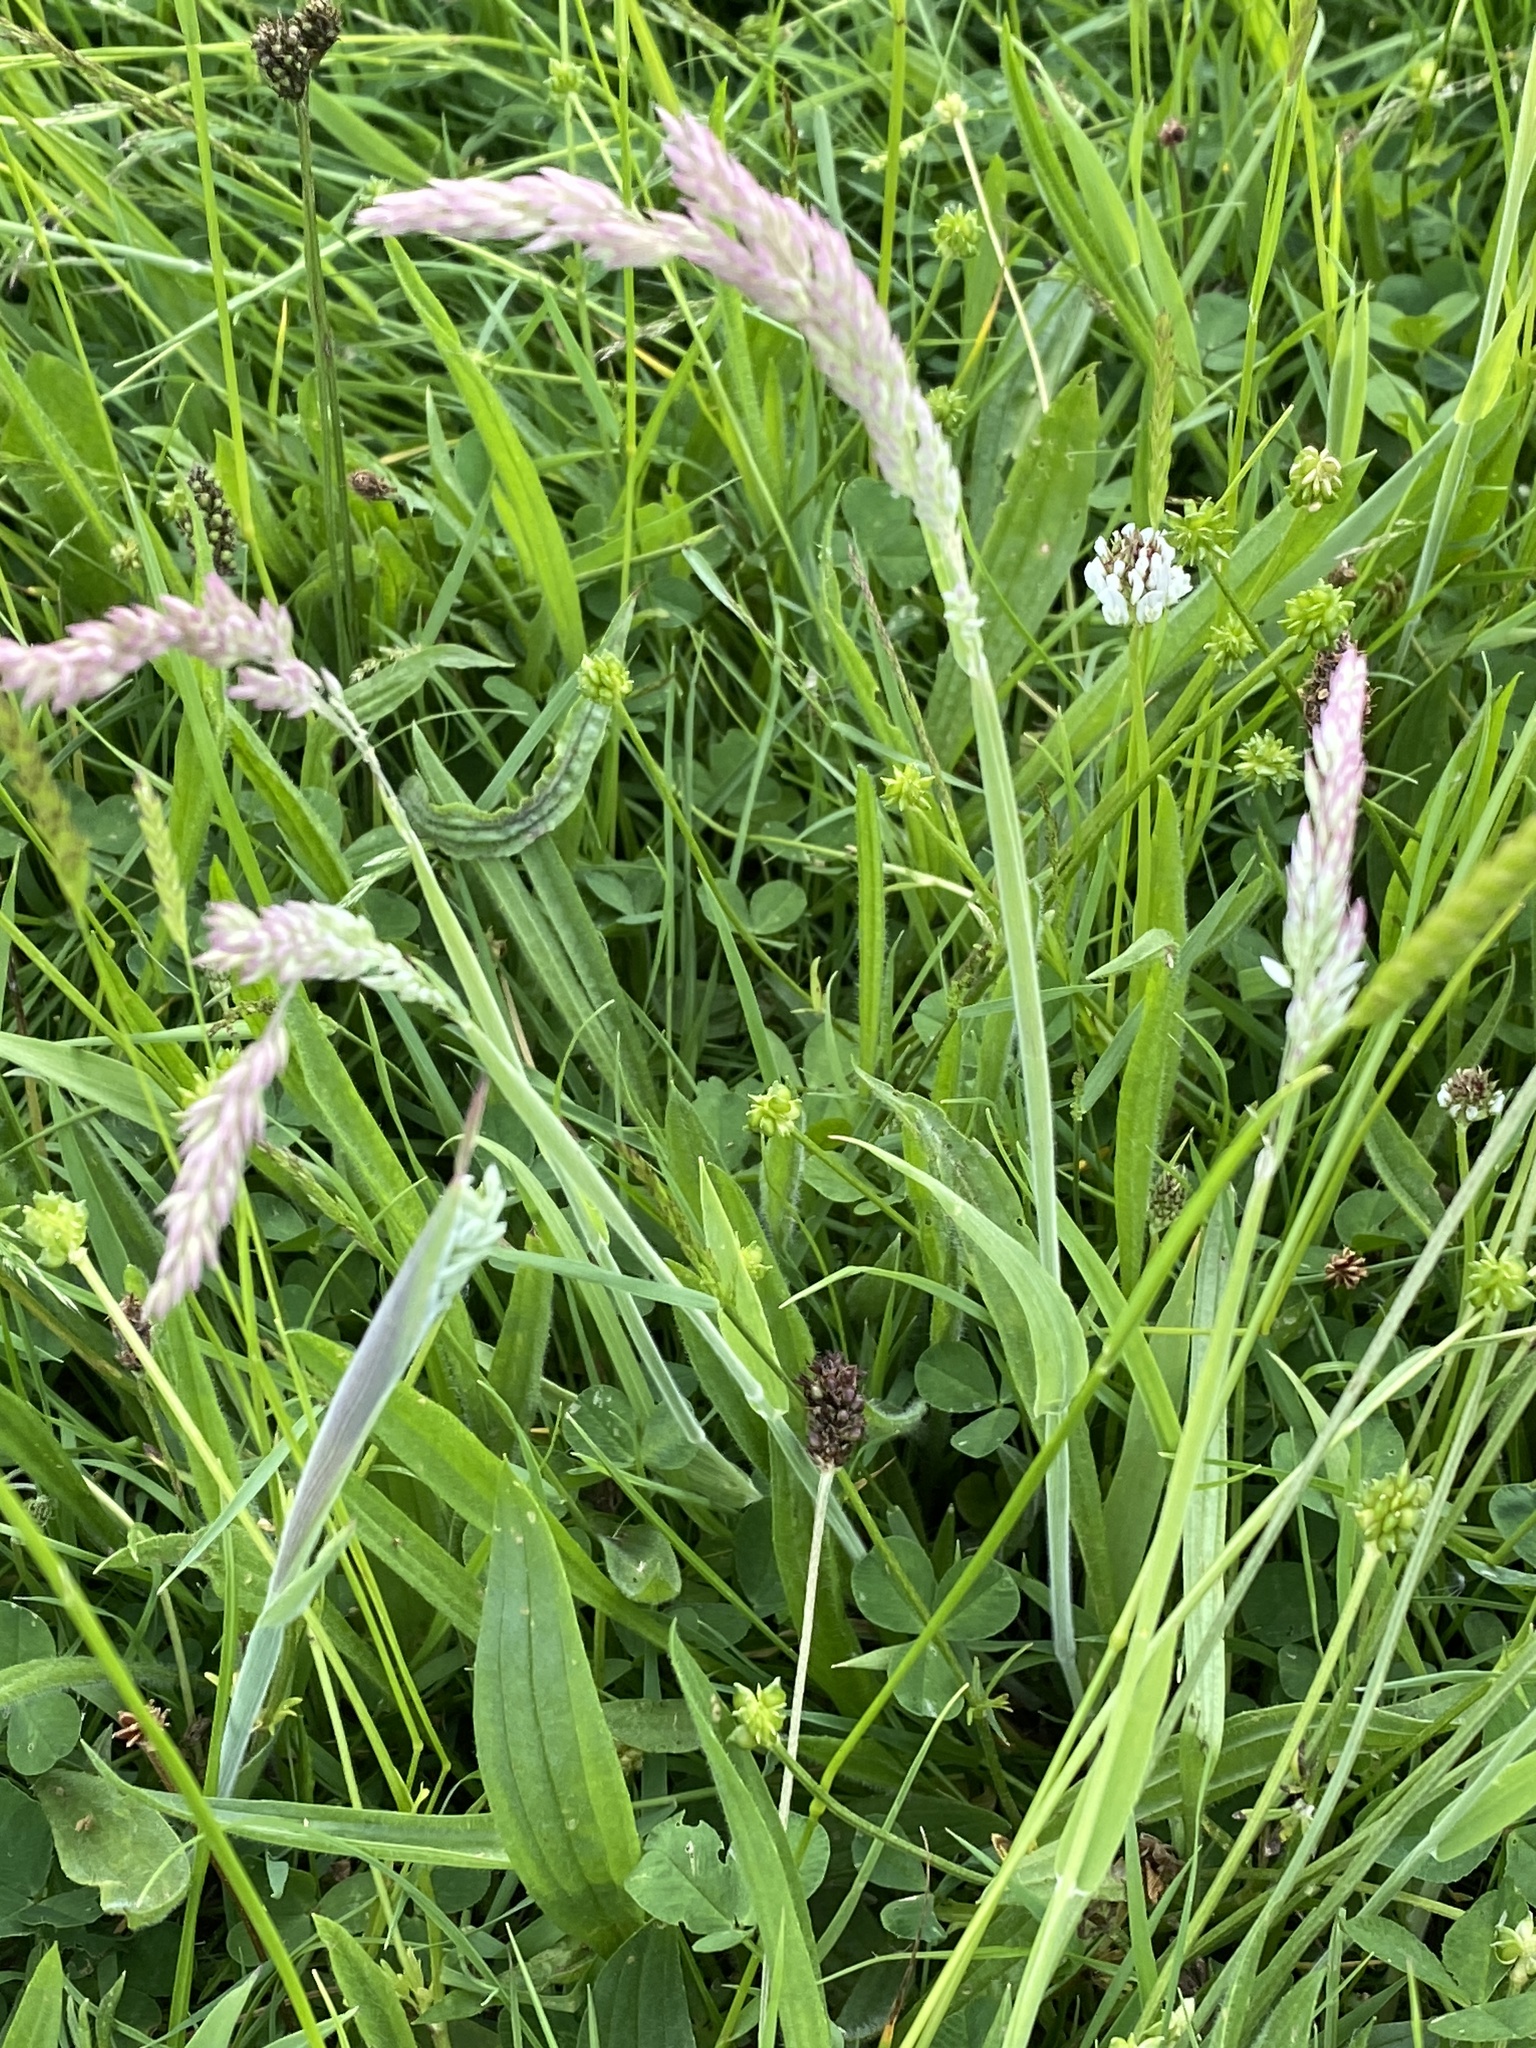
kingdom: Plantae
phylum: Tracheophyta
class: Liliopsida
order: Poales
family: Poaceae
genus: Holcus
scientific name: Holcus lanatus
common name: Yorkshire-fog
